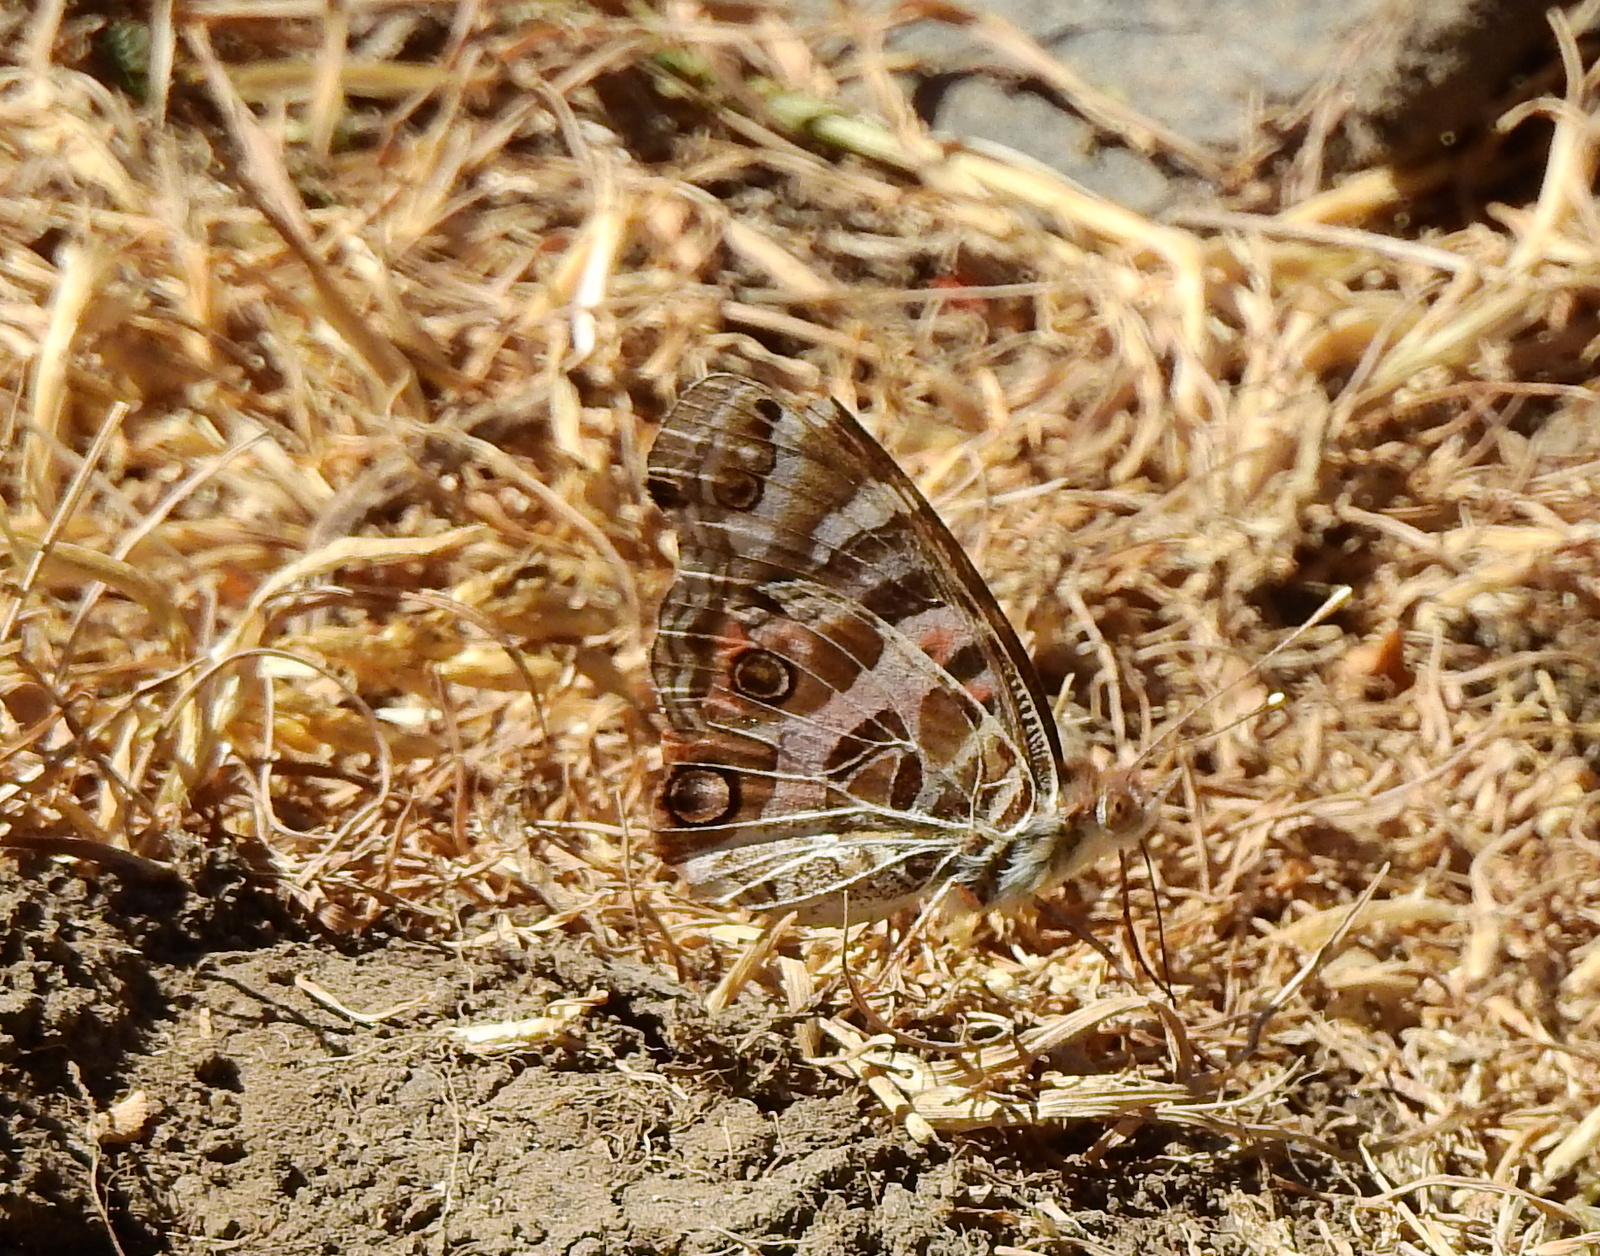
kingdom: Animalia
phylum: Arthropoda
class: Insecta
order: Lepidoptera
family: Nymphalidae
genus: Vanessa
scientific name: Vanessa braziliensis
